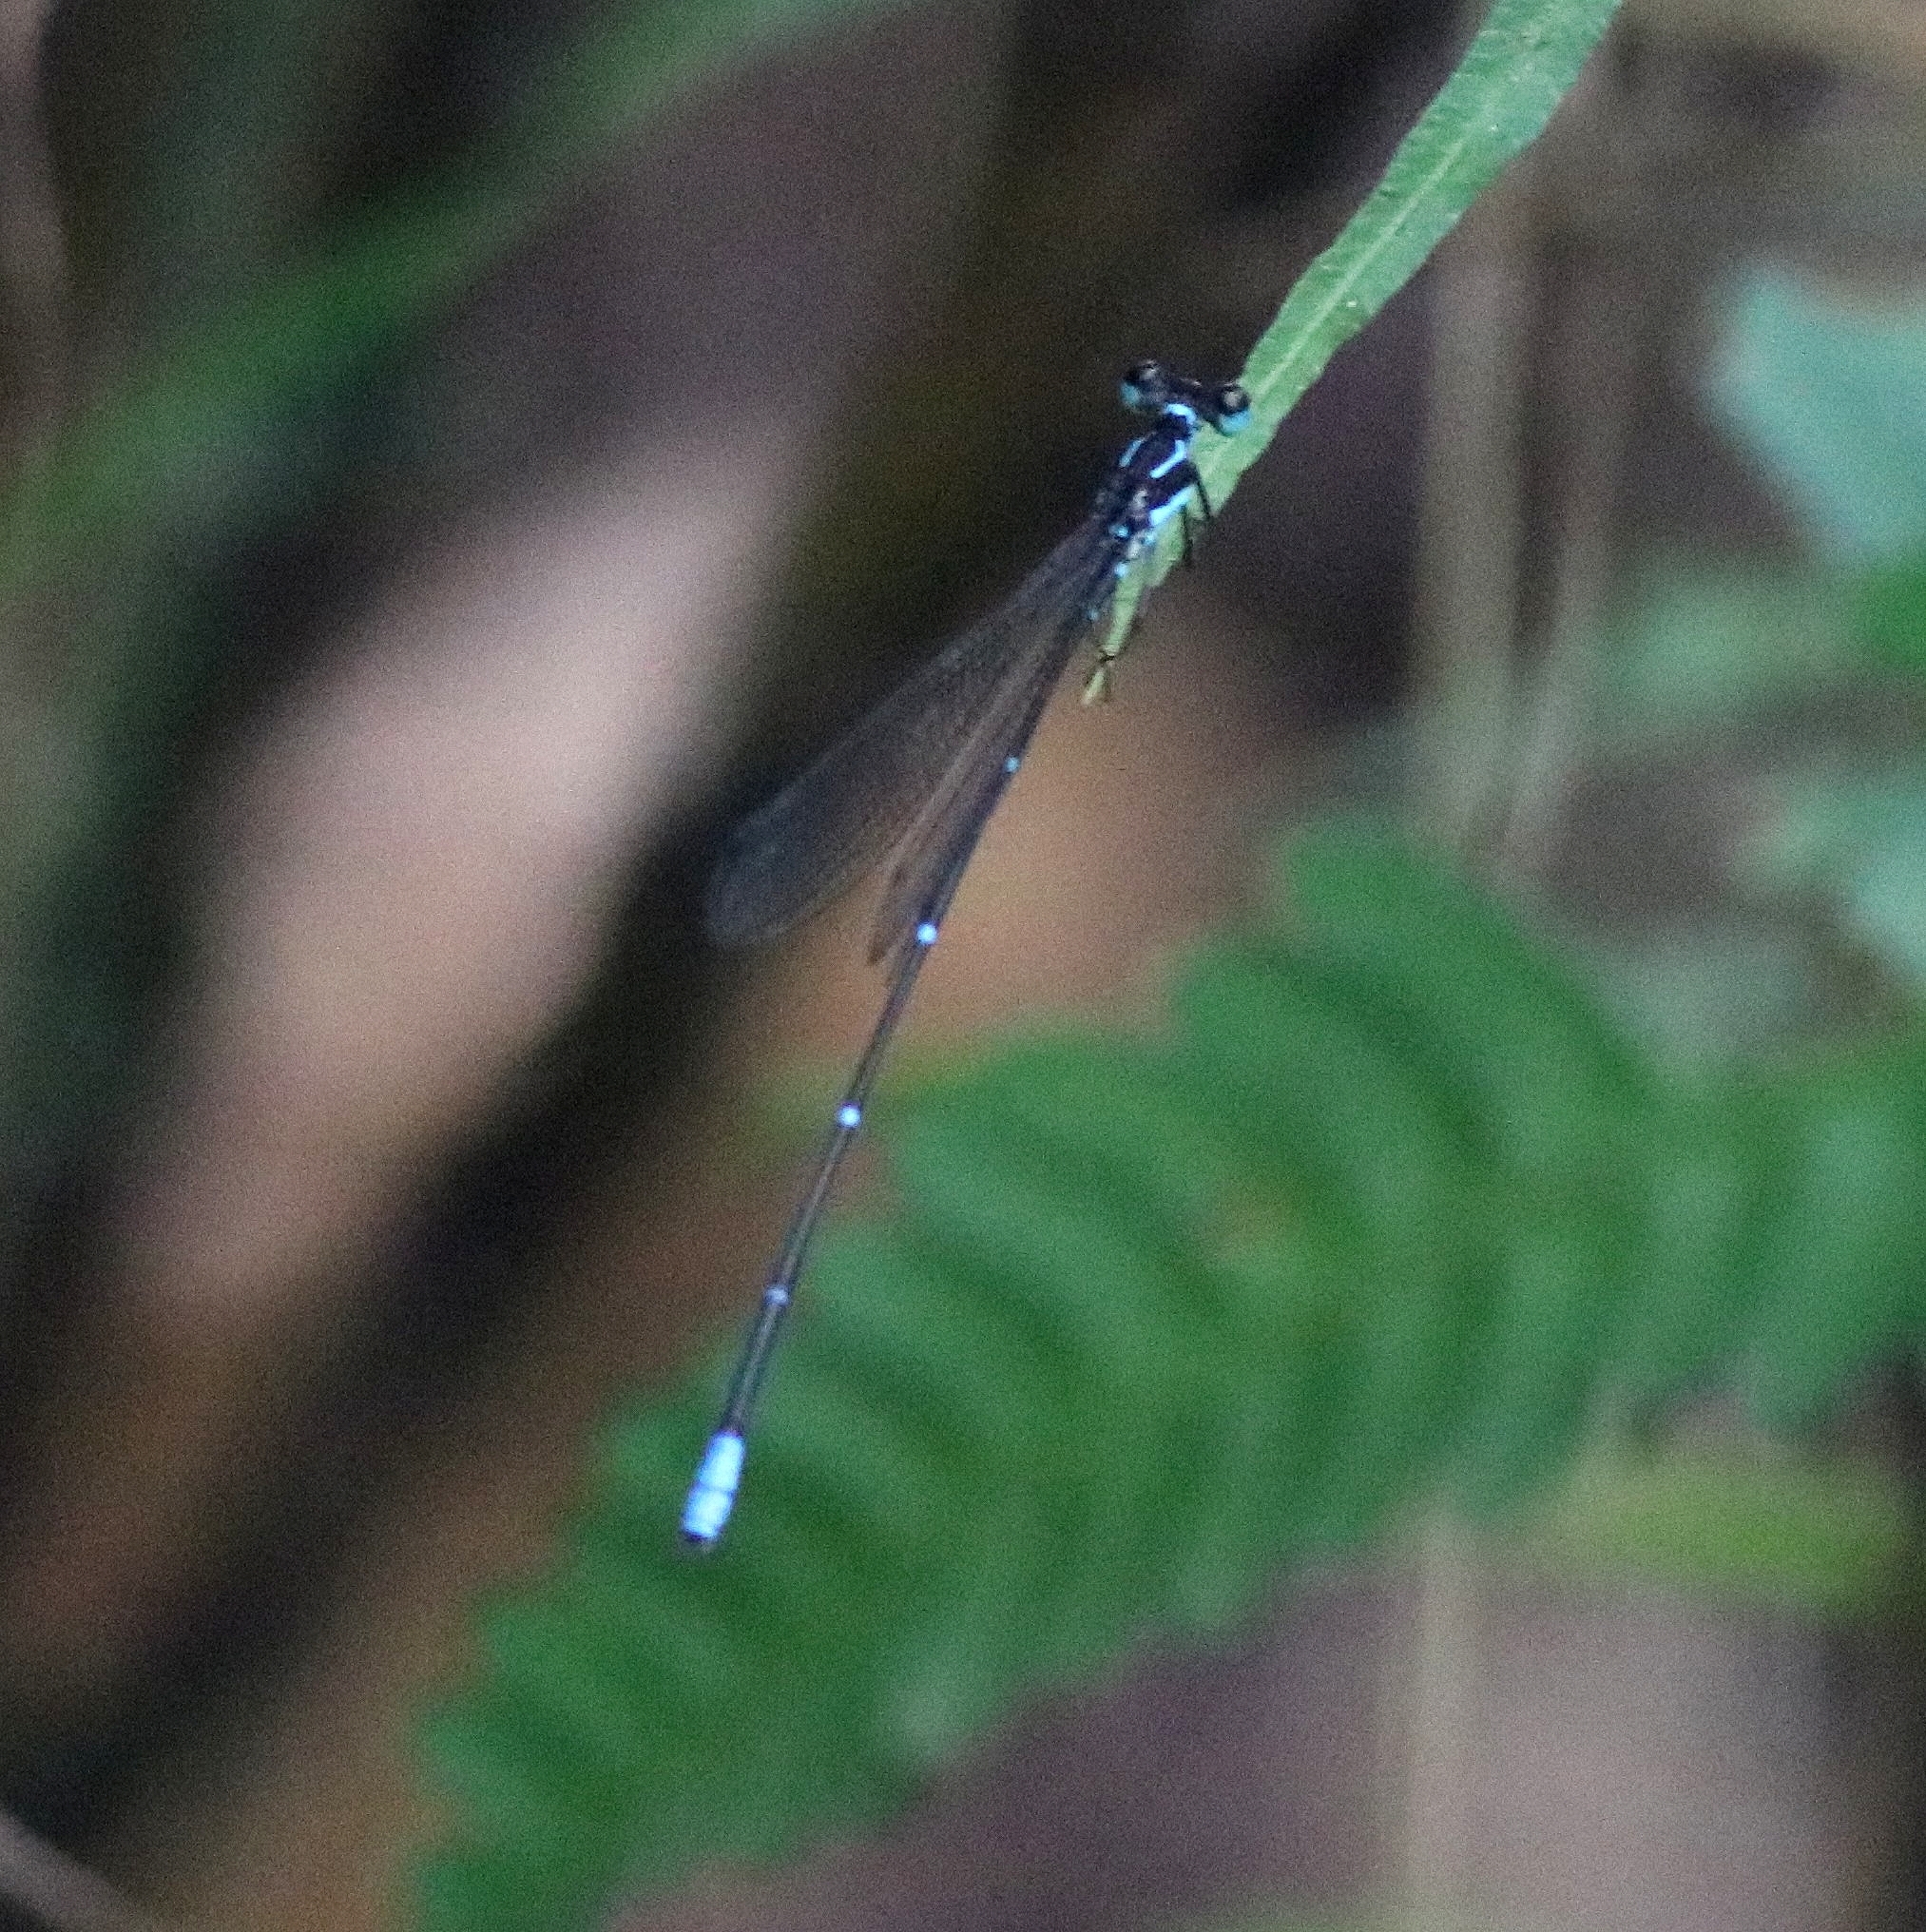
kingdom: Animalia
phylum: Arthropoda
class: Insecta
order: Odonata
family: Platycnemididae
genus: Caconeura
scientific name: Caconeura ramburi
